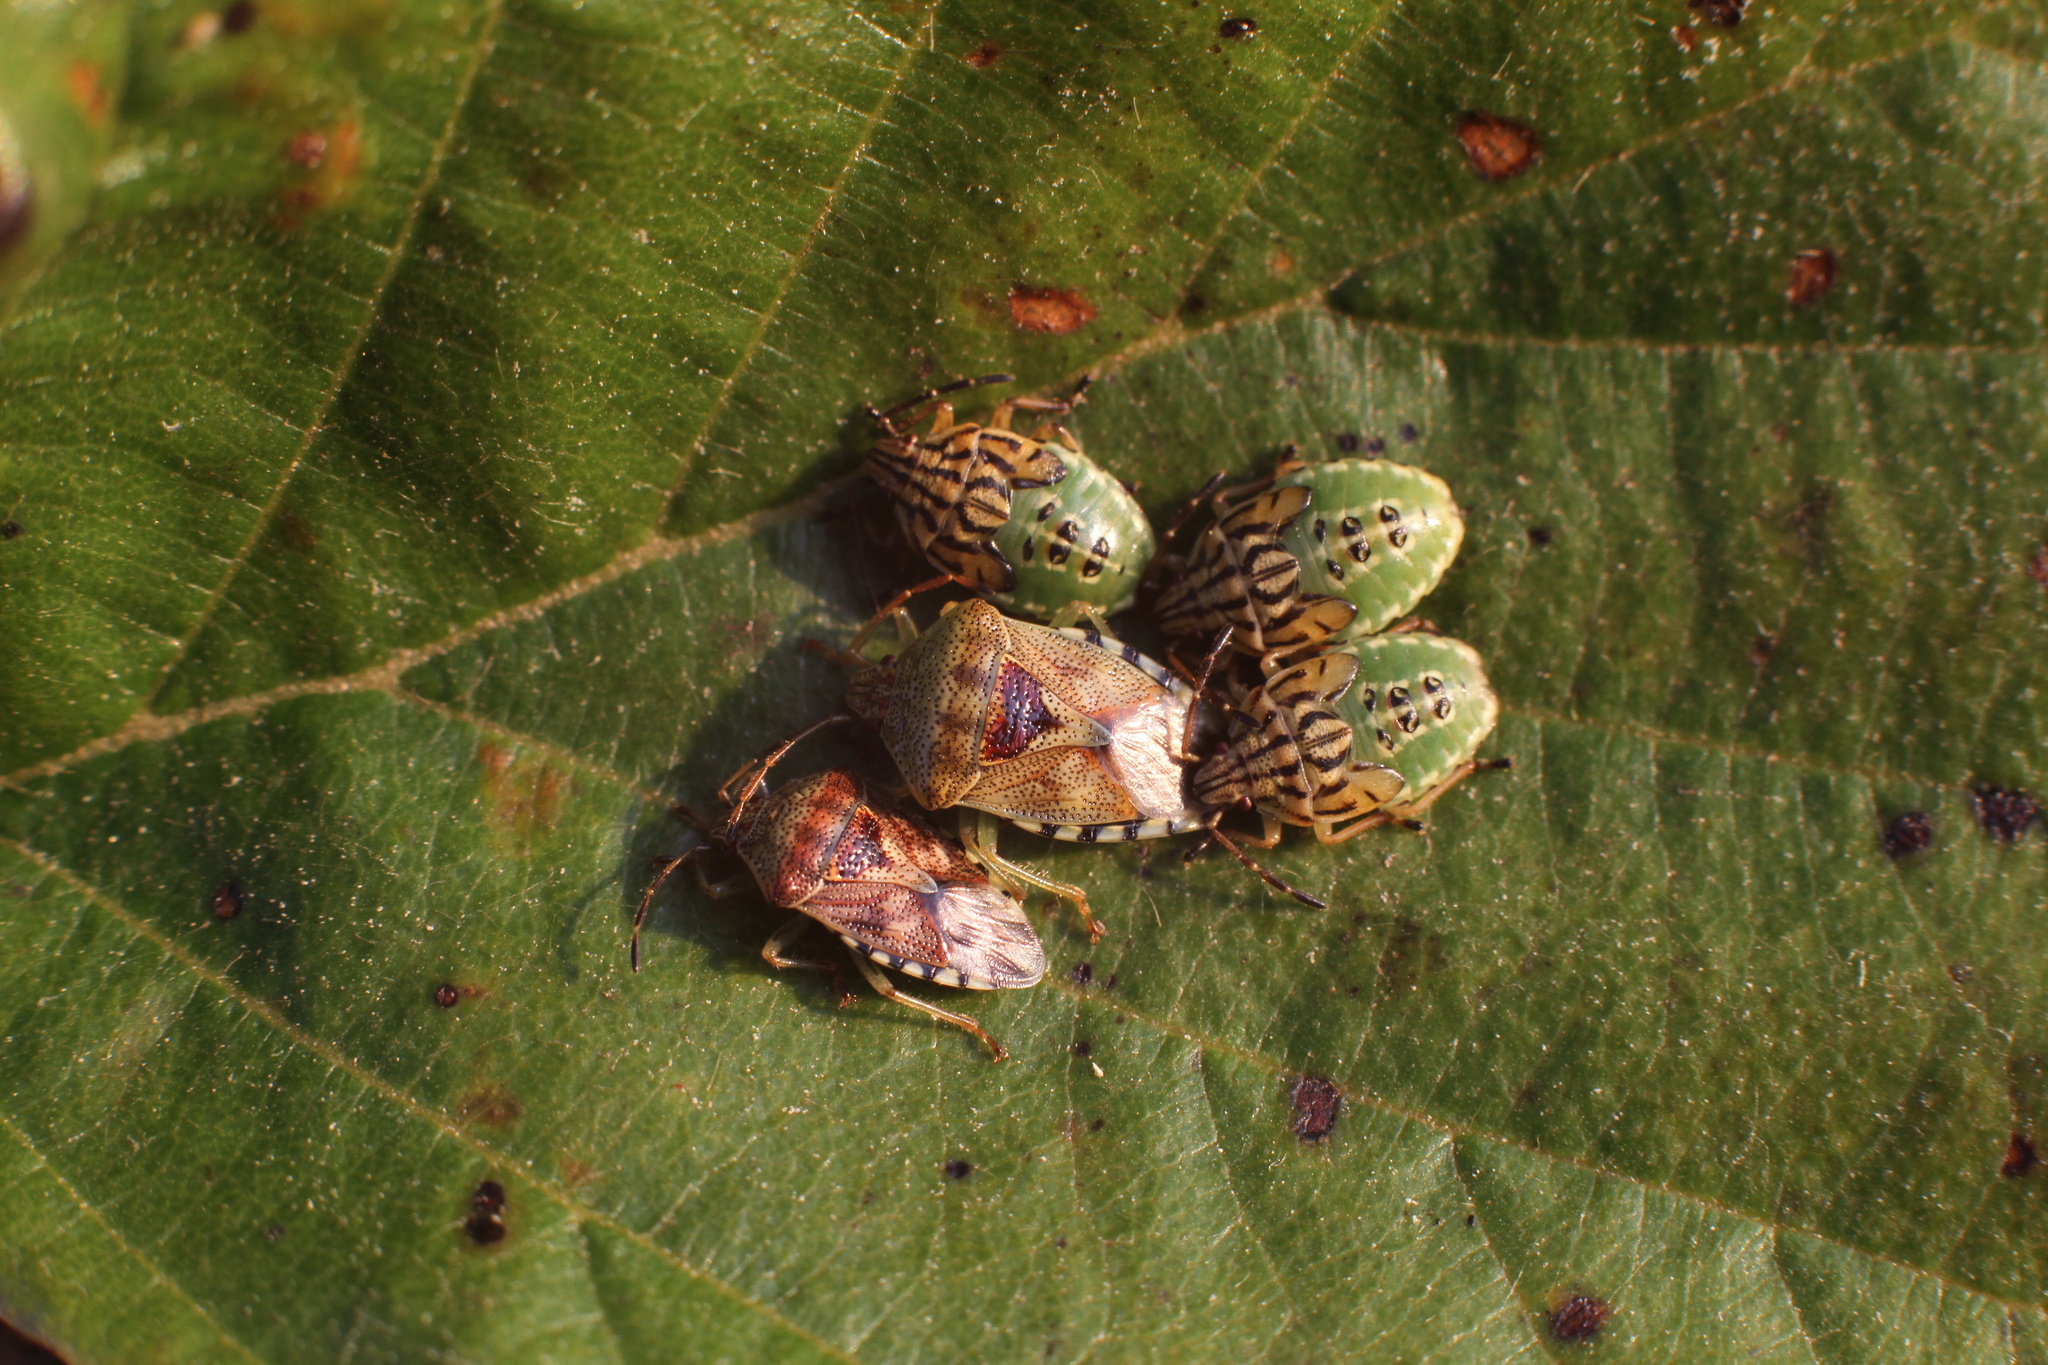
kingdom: Animalia
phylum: Arthropoda
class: Insecta
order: Hemiptera
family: Acanthosomatidae
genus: Elasmucha
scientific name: Elasmucha grisea
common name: Parent bug
